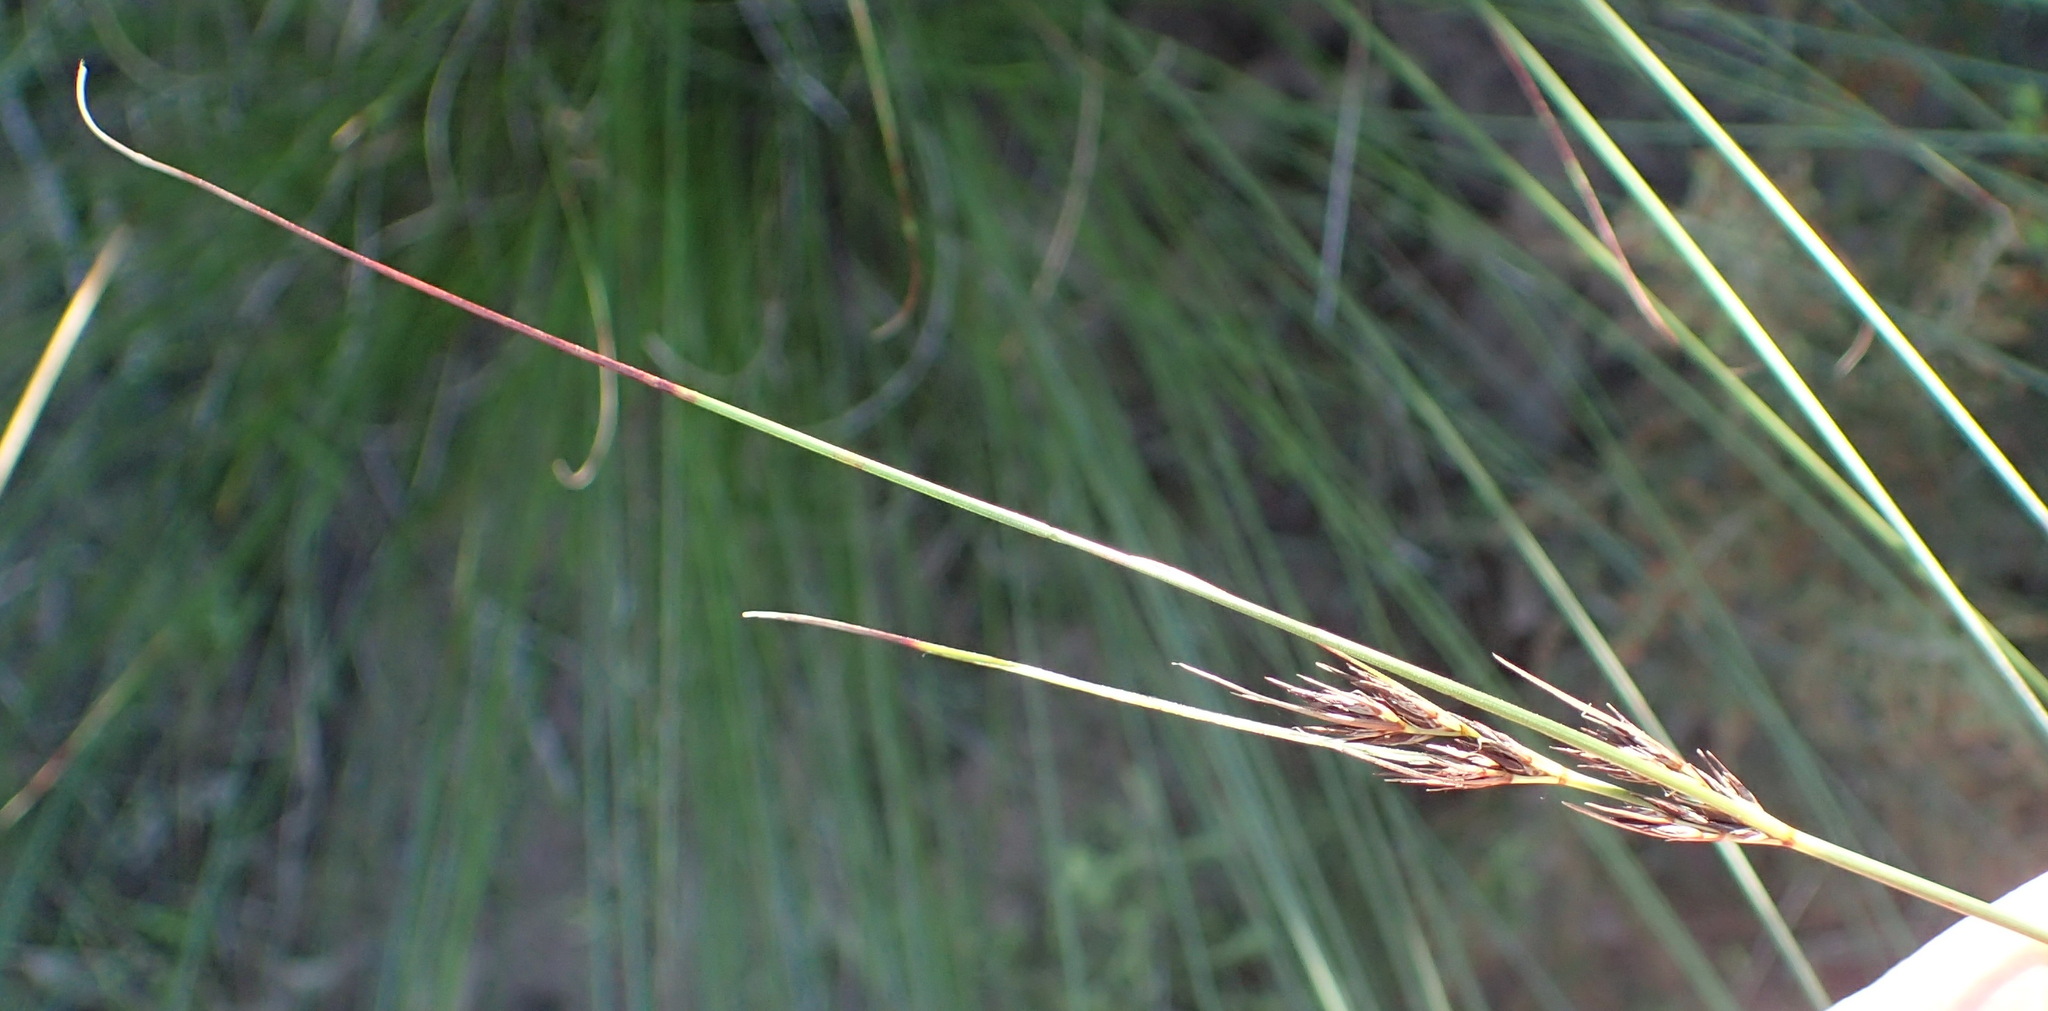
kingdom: Plantae
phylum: Tracheophyta
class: Liliopsida
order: Poales
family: Cyperaceae
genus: Schoenus
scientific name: Schoenus graciliculmis
